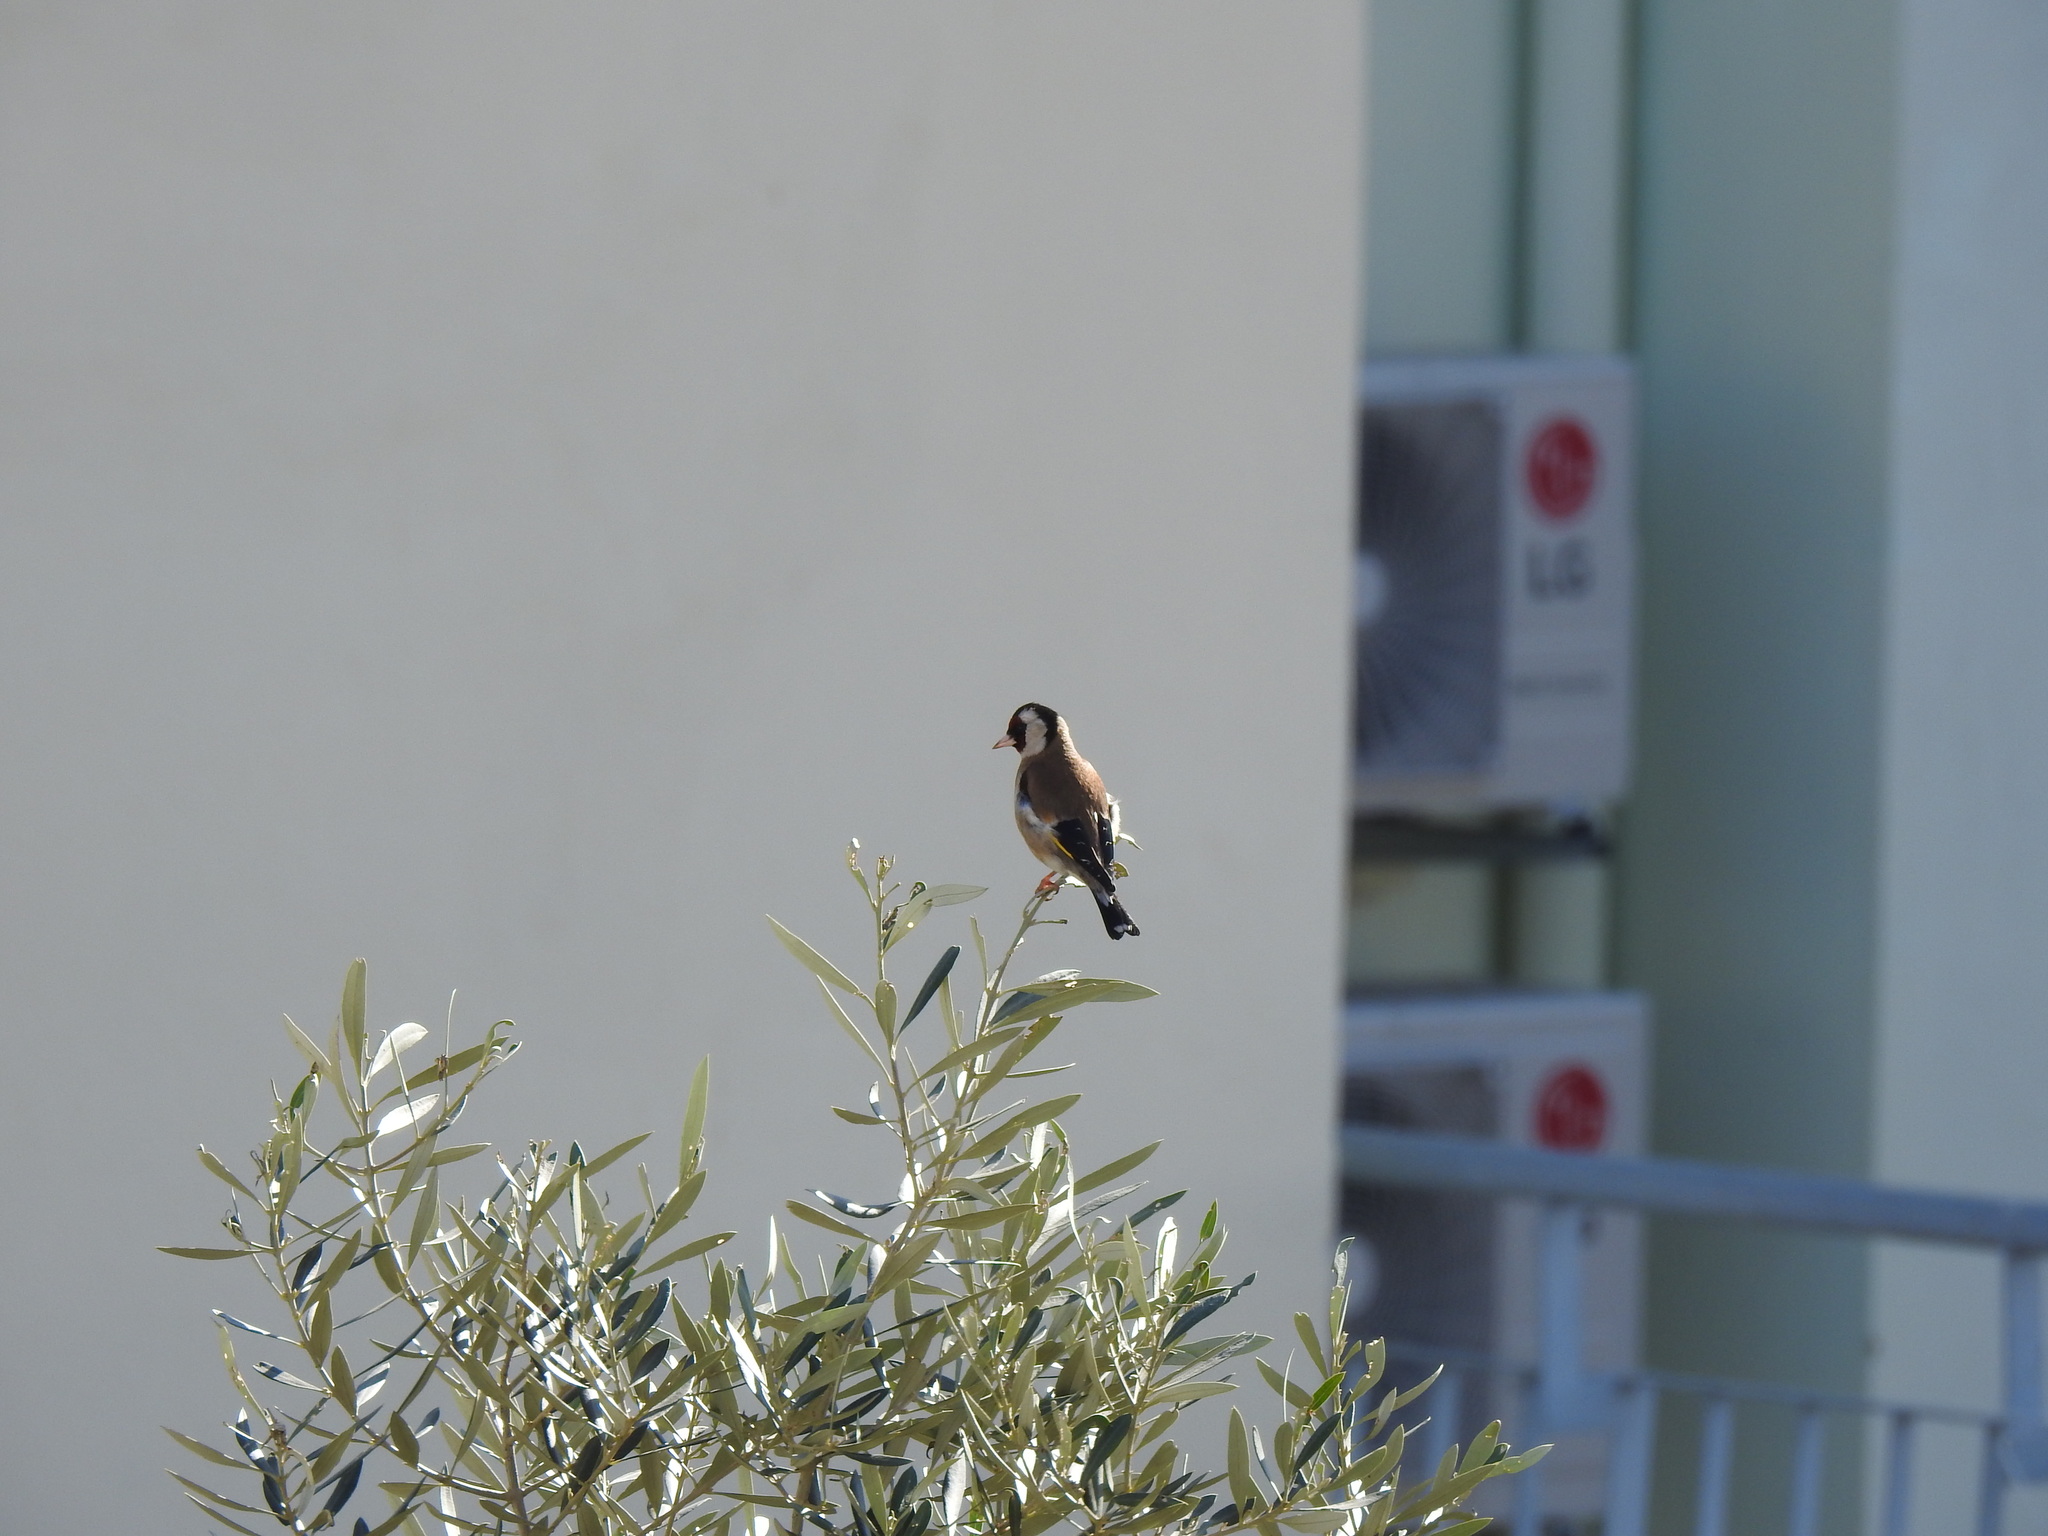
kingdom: Animalia
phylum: Chordata
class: Aves
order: Passeriformes
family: Fringillidae
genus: Carduelis
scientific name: Carduelis carduelis
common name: European goldfinch
